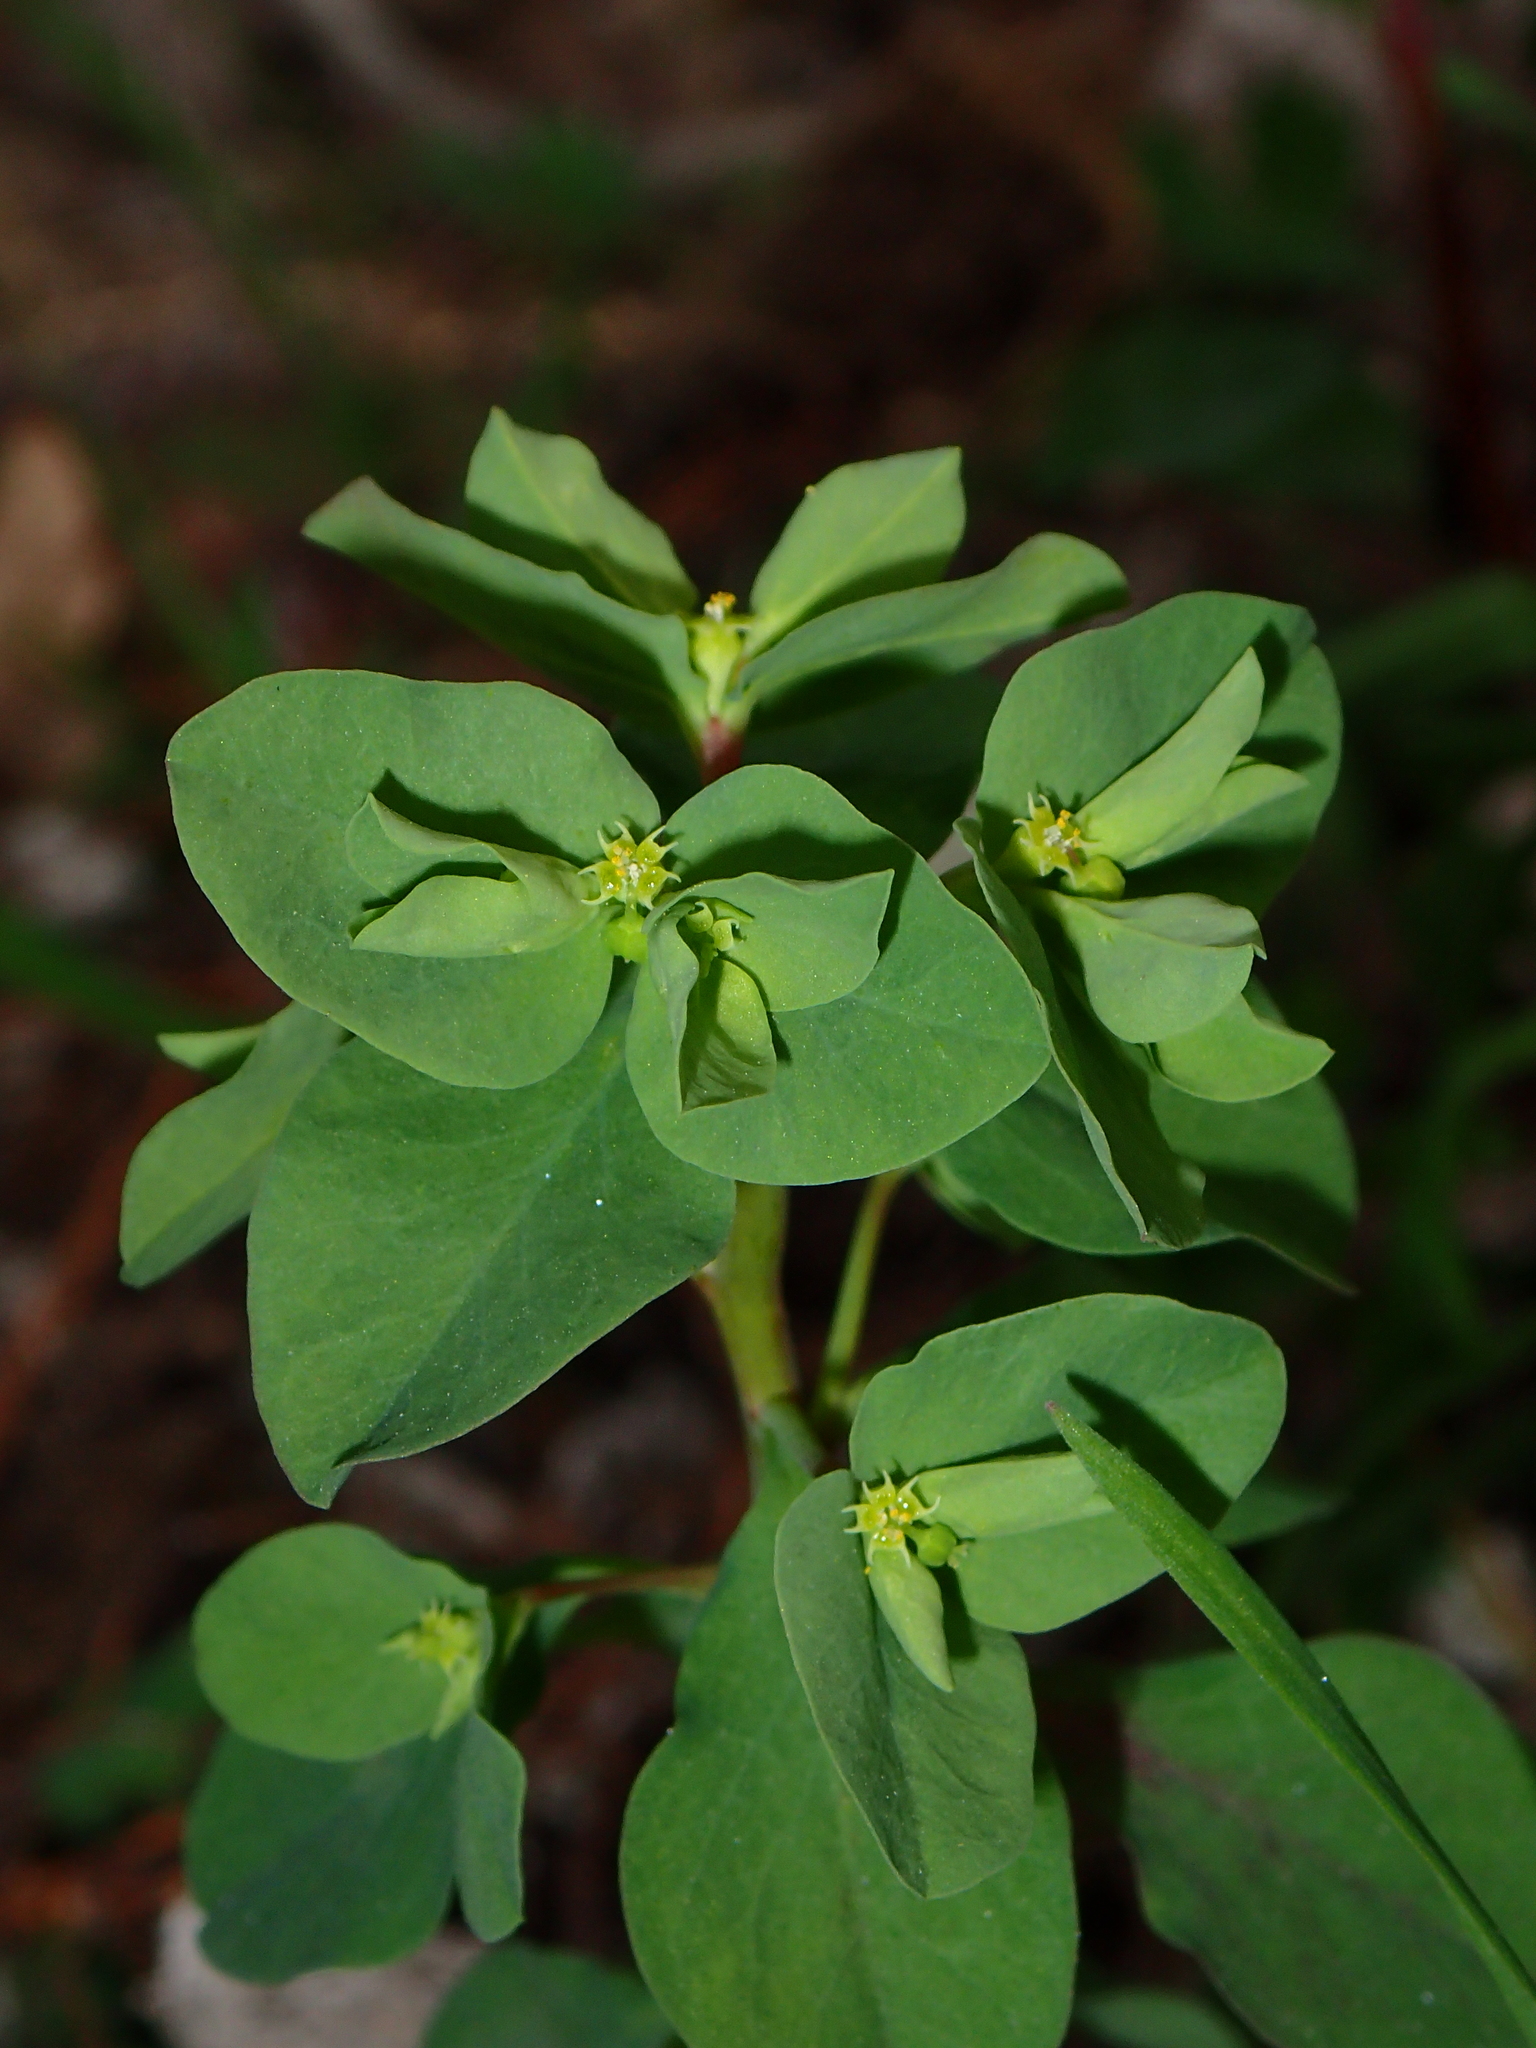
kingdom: Plantae
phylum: Tracheophyta
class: Magnoliopsida
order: Malpighiales
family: Euphorbiaceae
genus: Euphorbia
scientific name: Euphorbia peplus
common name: Petty spurge
